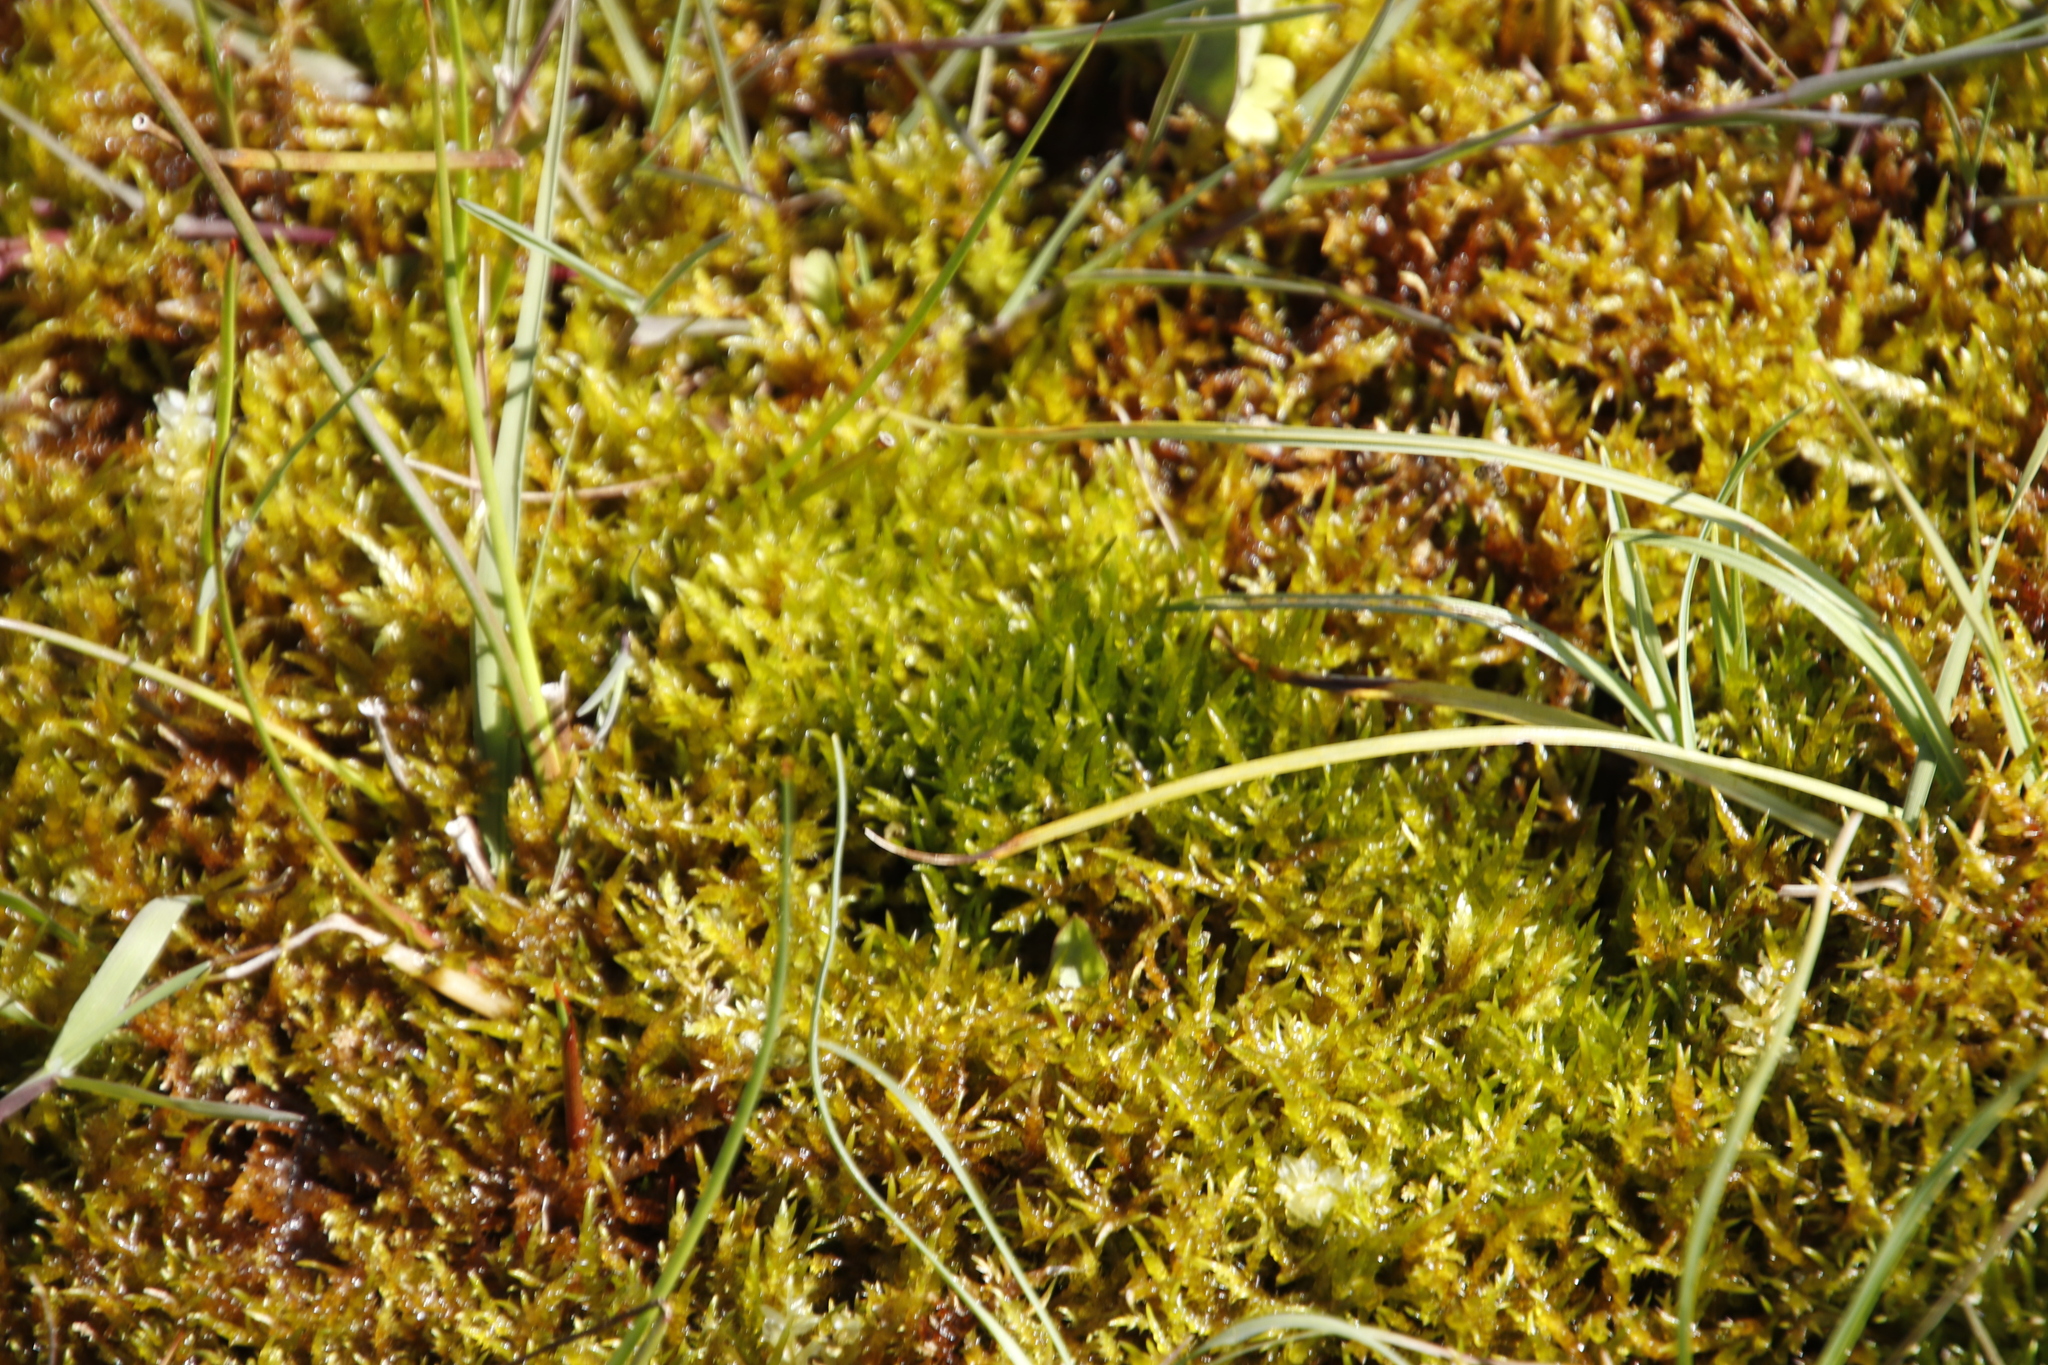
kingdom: Plantae
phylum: Bryophyta
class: Bryopsida
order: Hypnales
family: Pylaisiaceae
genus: Calliergonella
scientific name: Calliergonella cuspidata
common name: Common large wetland moss
